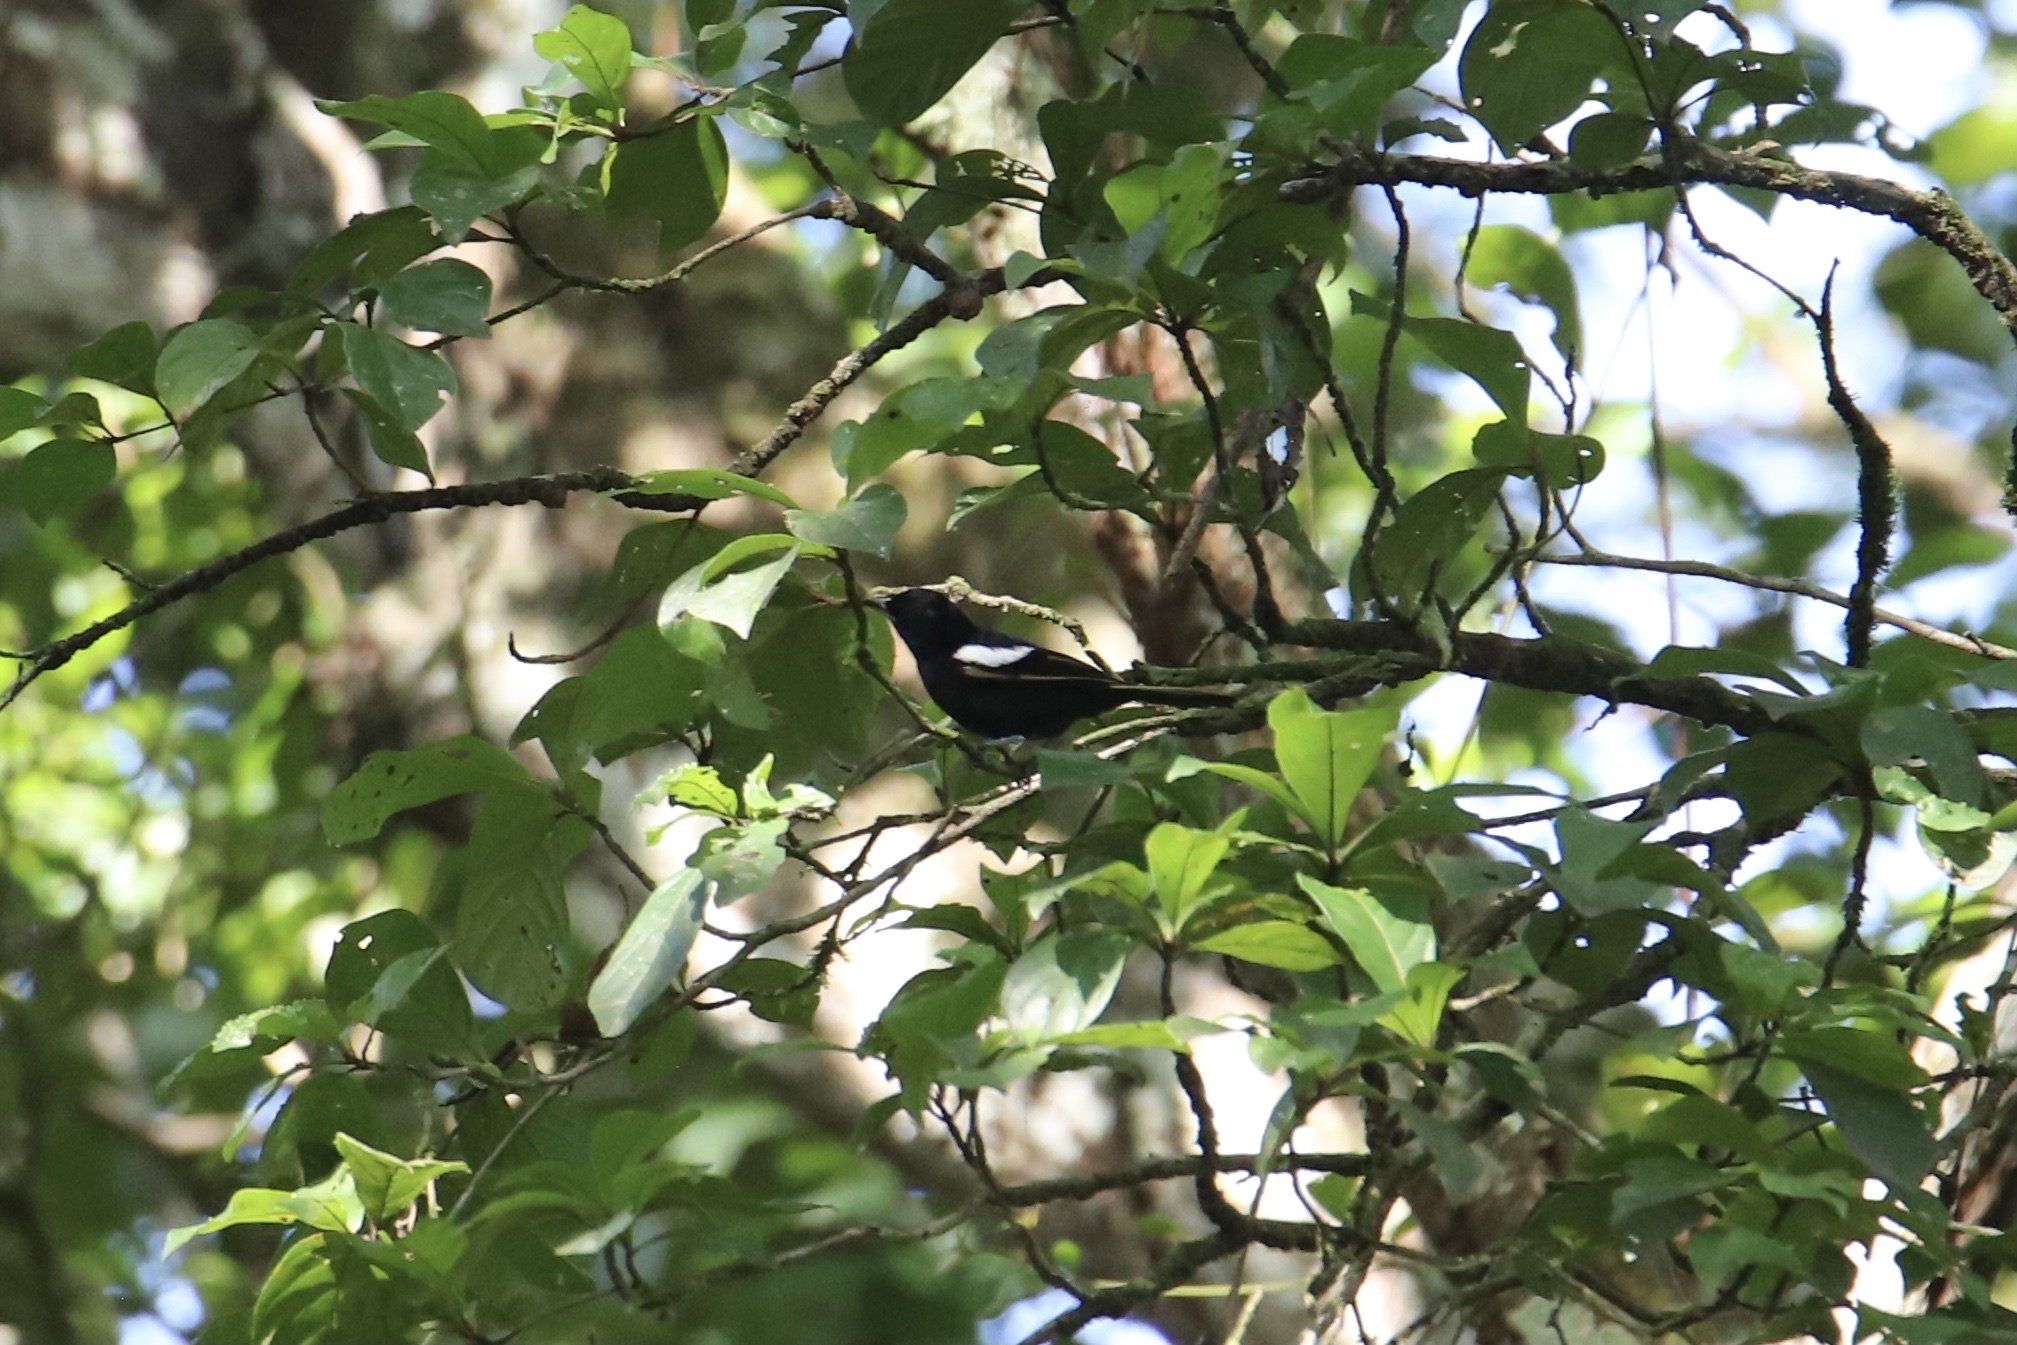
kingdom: Animalia
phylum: Chordata
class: Aves
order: Passeriformes
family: Thraupidae
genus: Loriotus
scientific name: Loriotus luctuosus
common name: White-shouldered tanager
